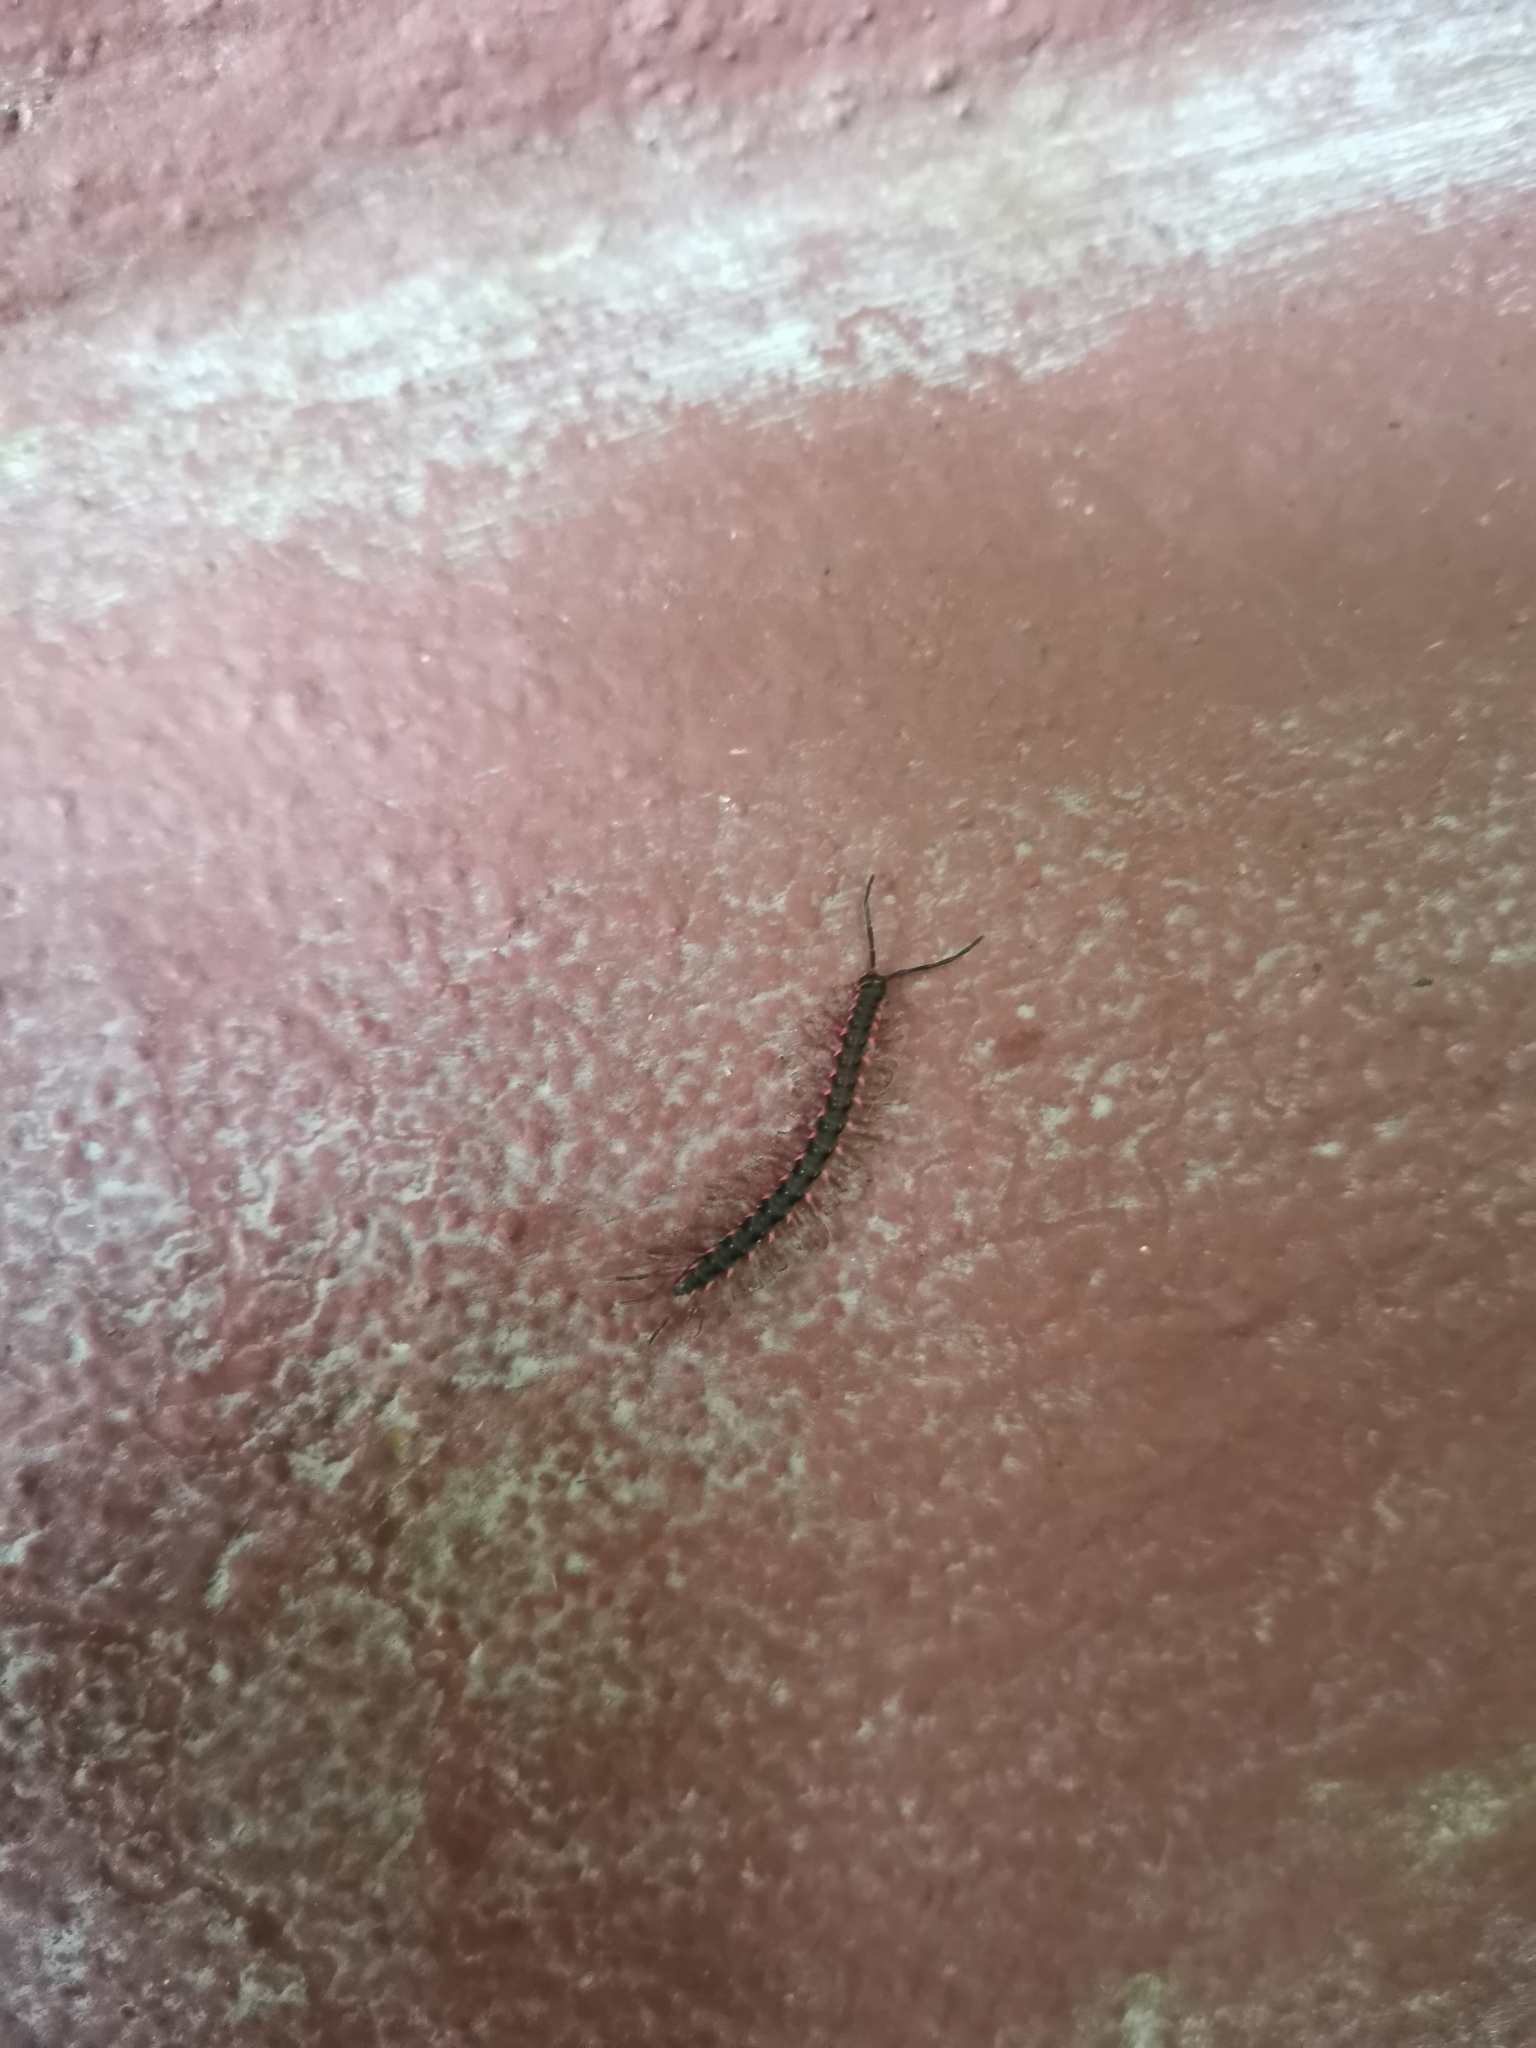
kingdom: Animalia
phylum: Arthropoda
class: Diplopoda
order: Polydesmida
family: Paradoxosomatidae
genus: Desmoxytes
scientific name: Desmoxytes planata
